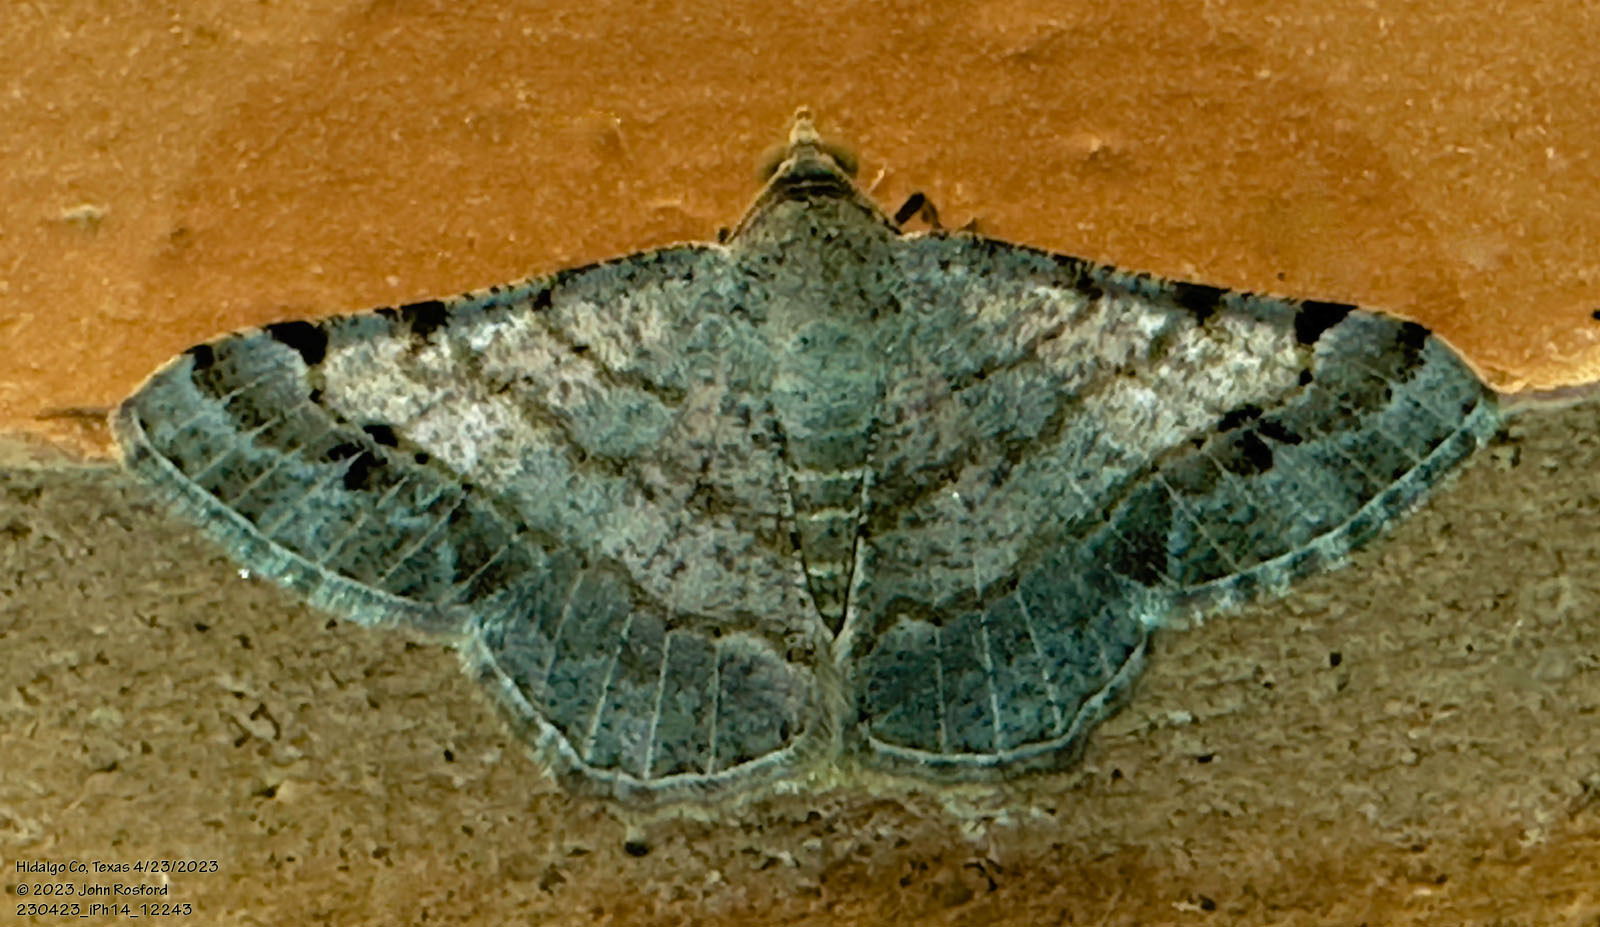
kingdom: Animalia
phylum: Arthropoda
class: Insecta
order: Lepidoptera
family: Geometridae
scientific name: Geometridae
